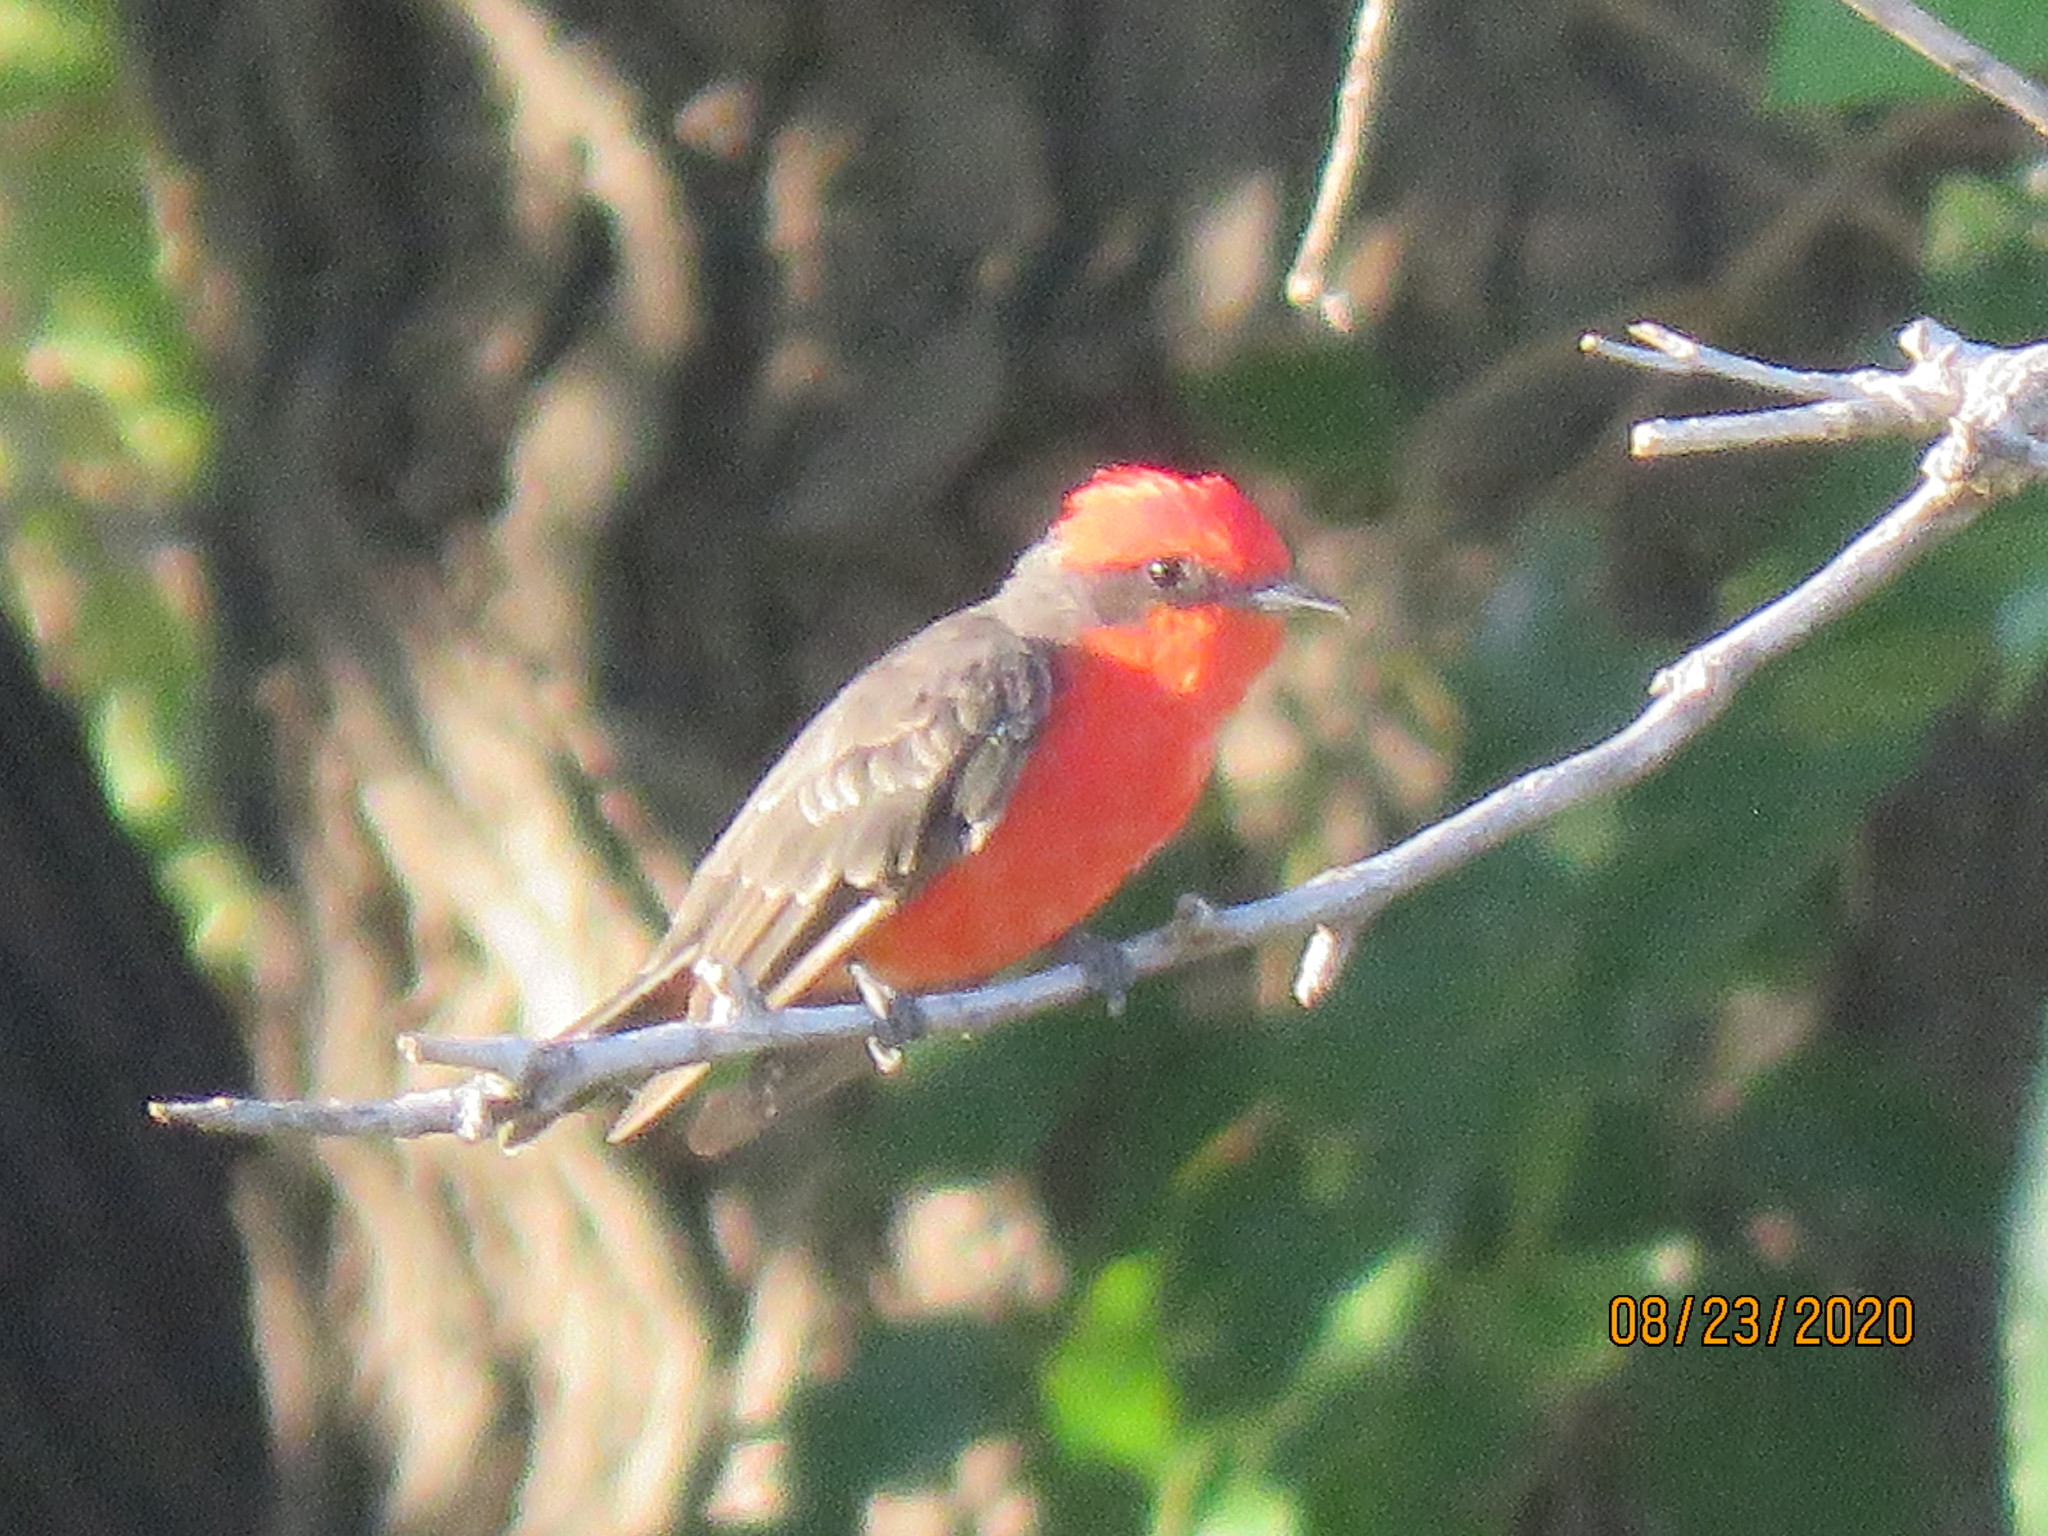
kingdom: Animalia
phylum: Chordata
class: Aves
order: Passeriformes
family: Tyrannidae
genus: Pyrocephalus
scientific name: Pyrocephalus rubinus
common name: Vermilion flycatcher
